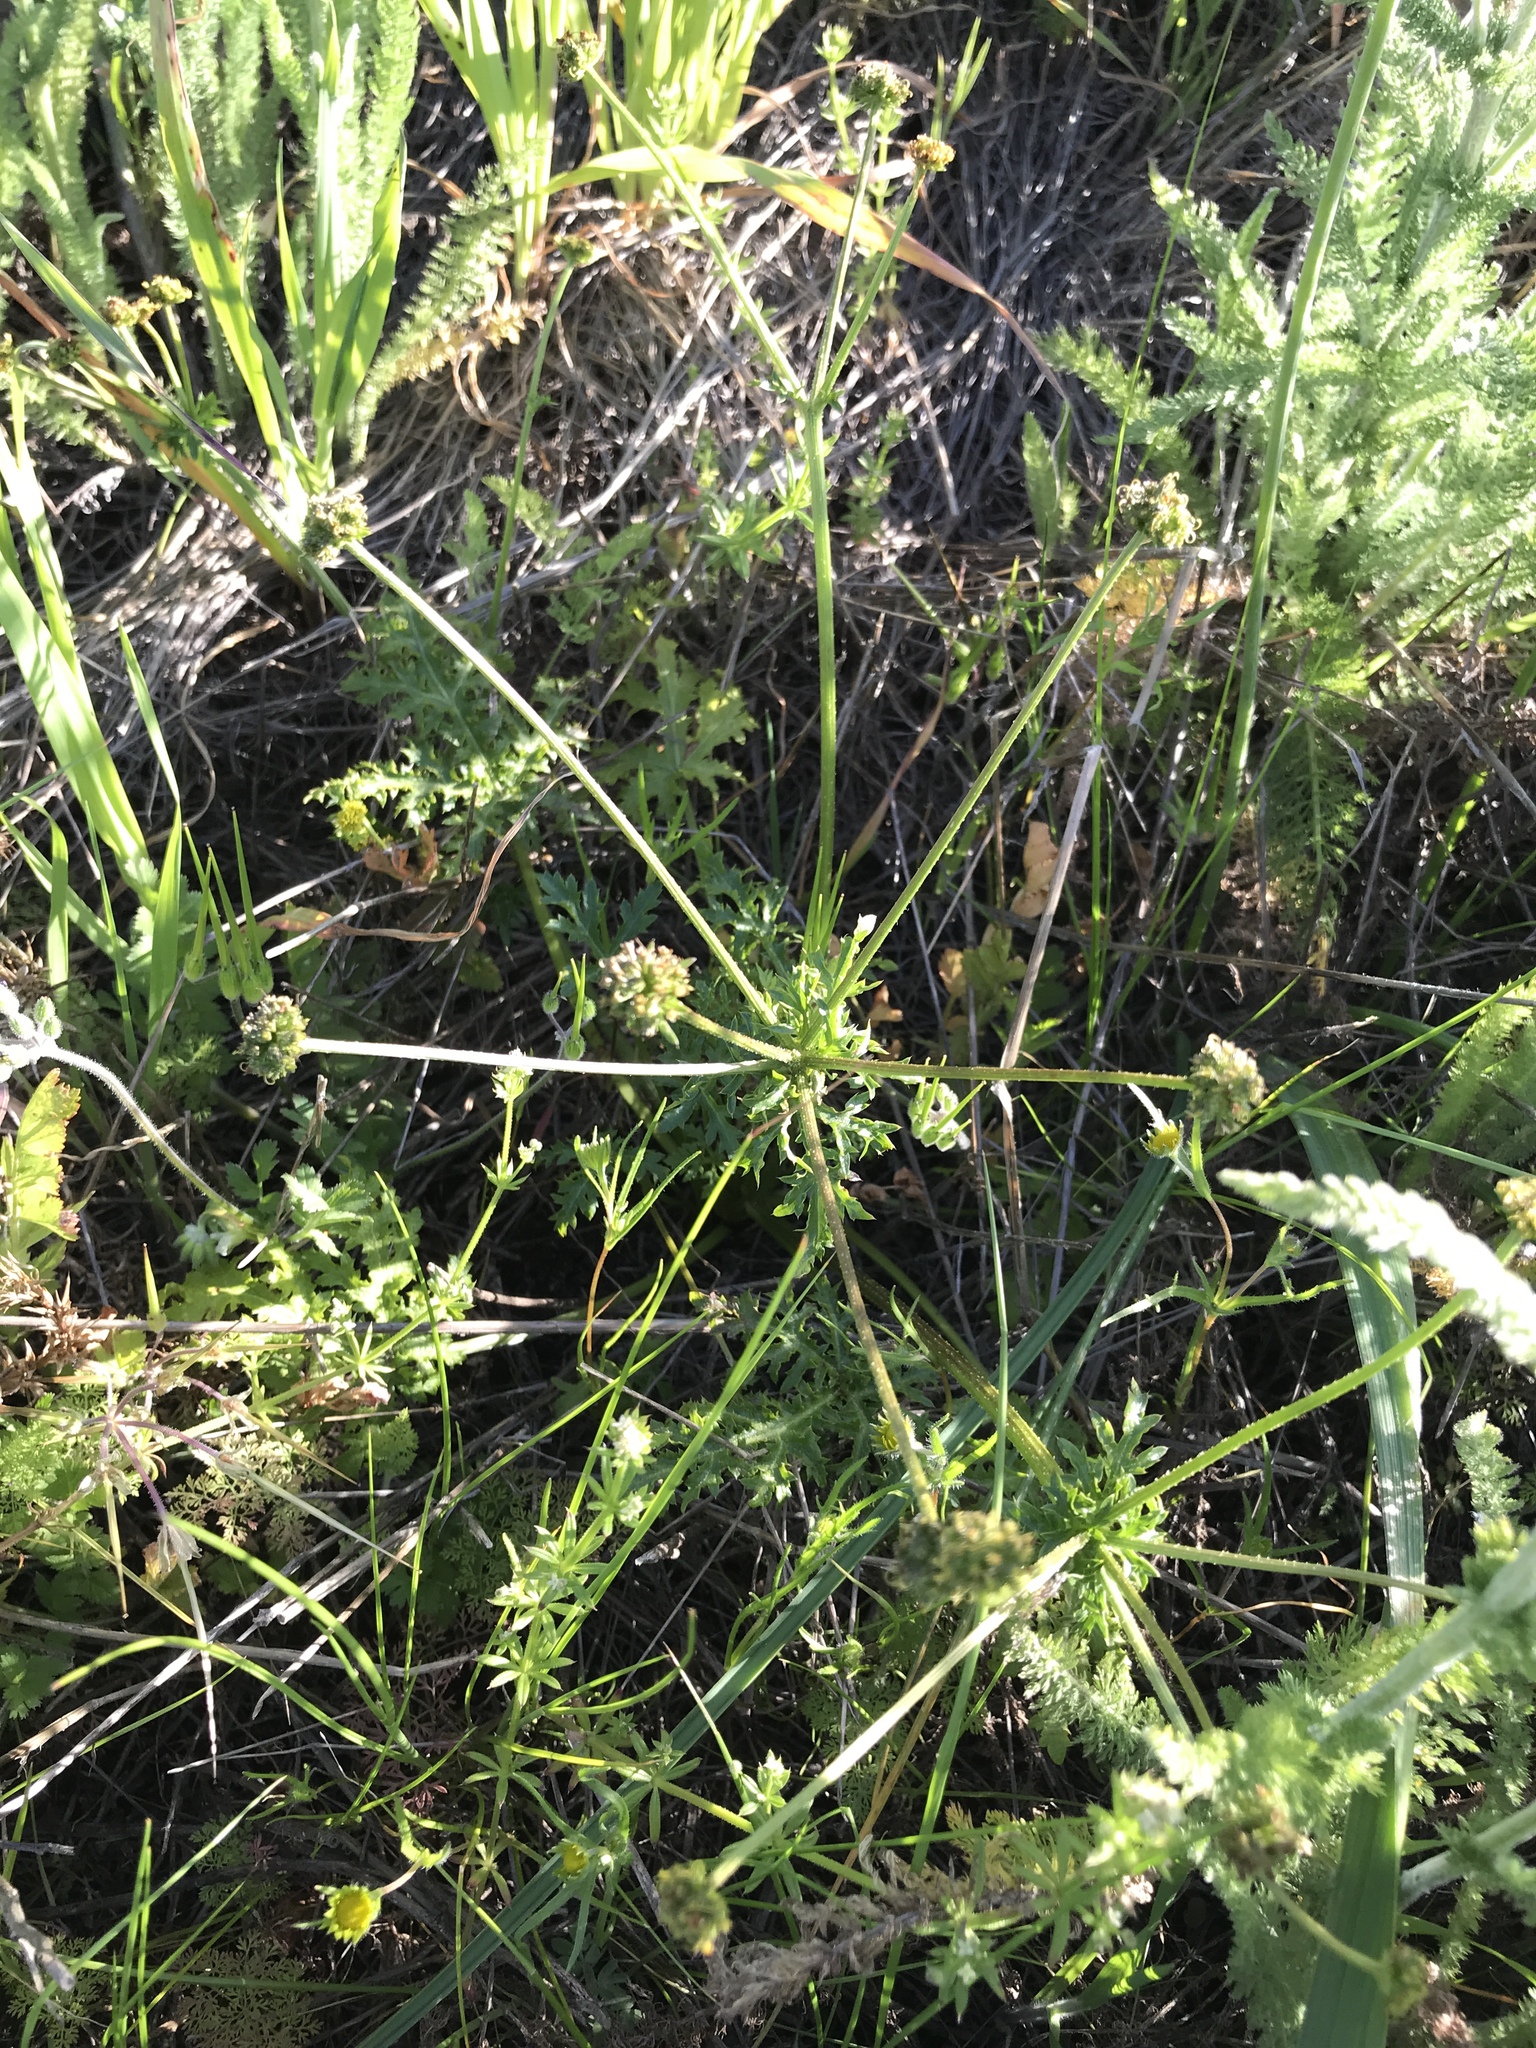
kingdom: Plantae
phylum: Tracheophyta
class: Magnoliopsida
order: Apiales
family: Apiaceae
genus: Sanicula
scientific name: Sanicula arguta
